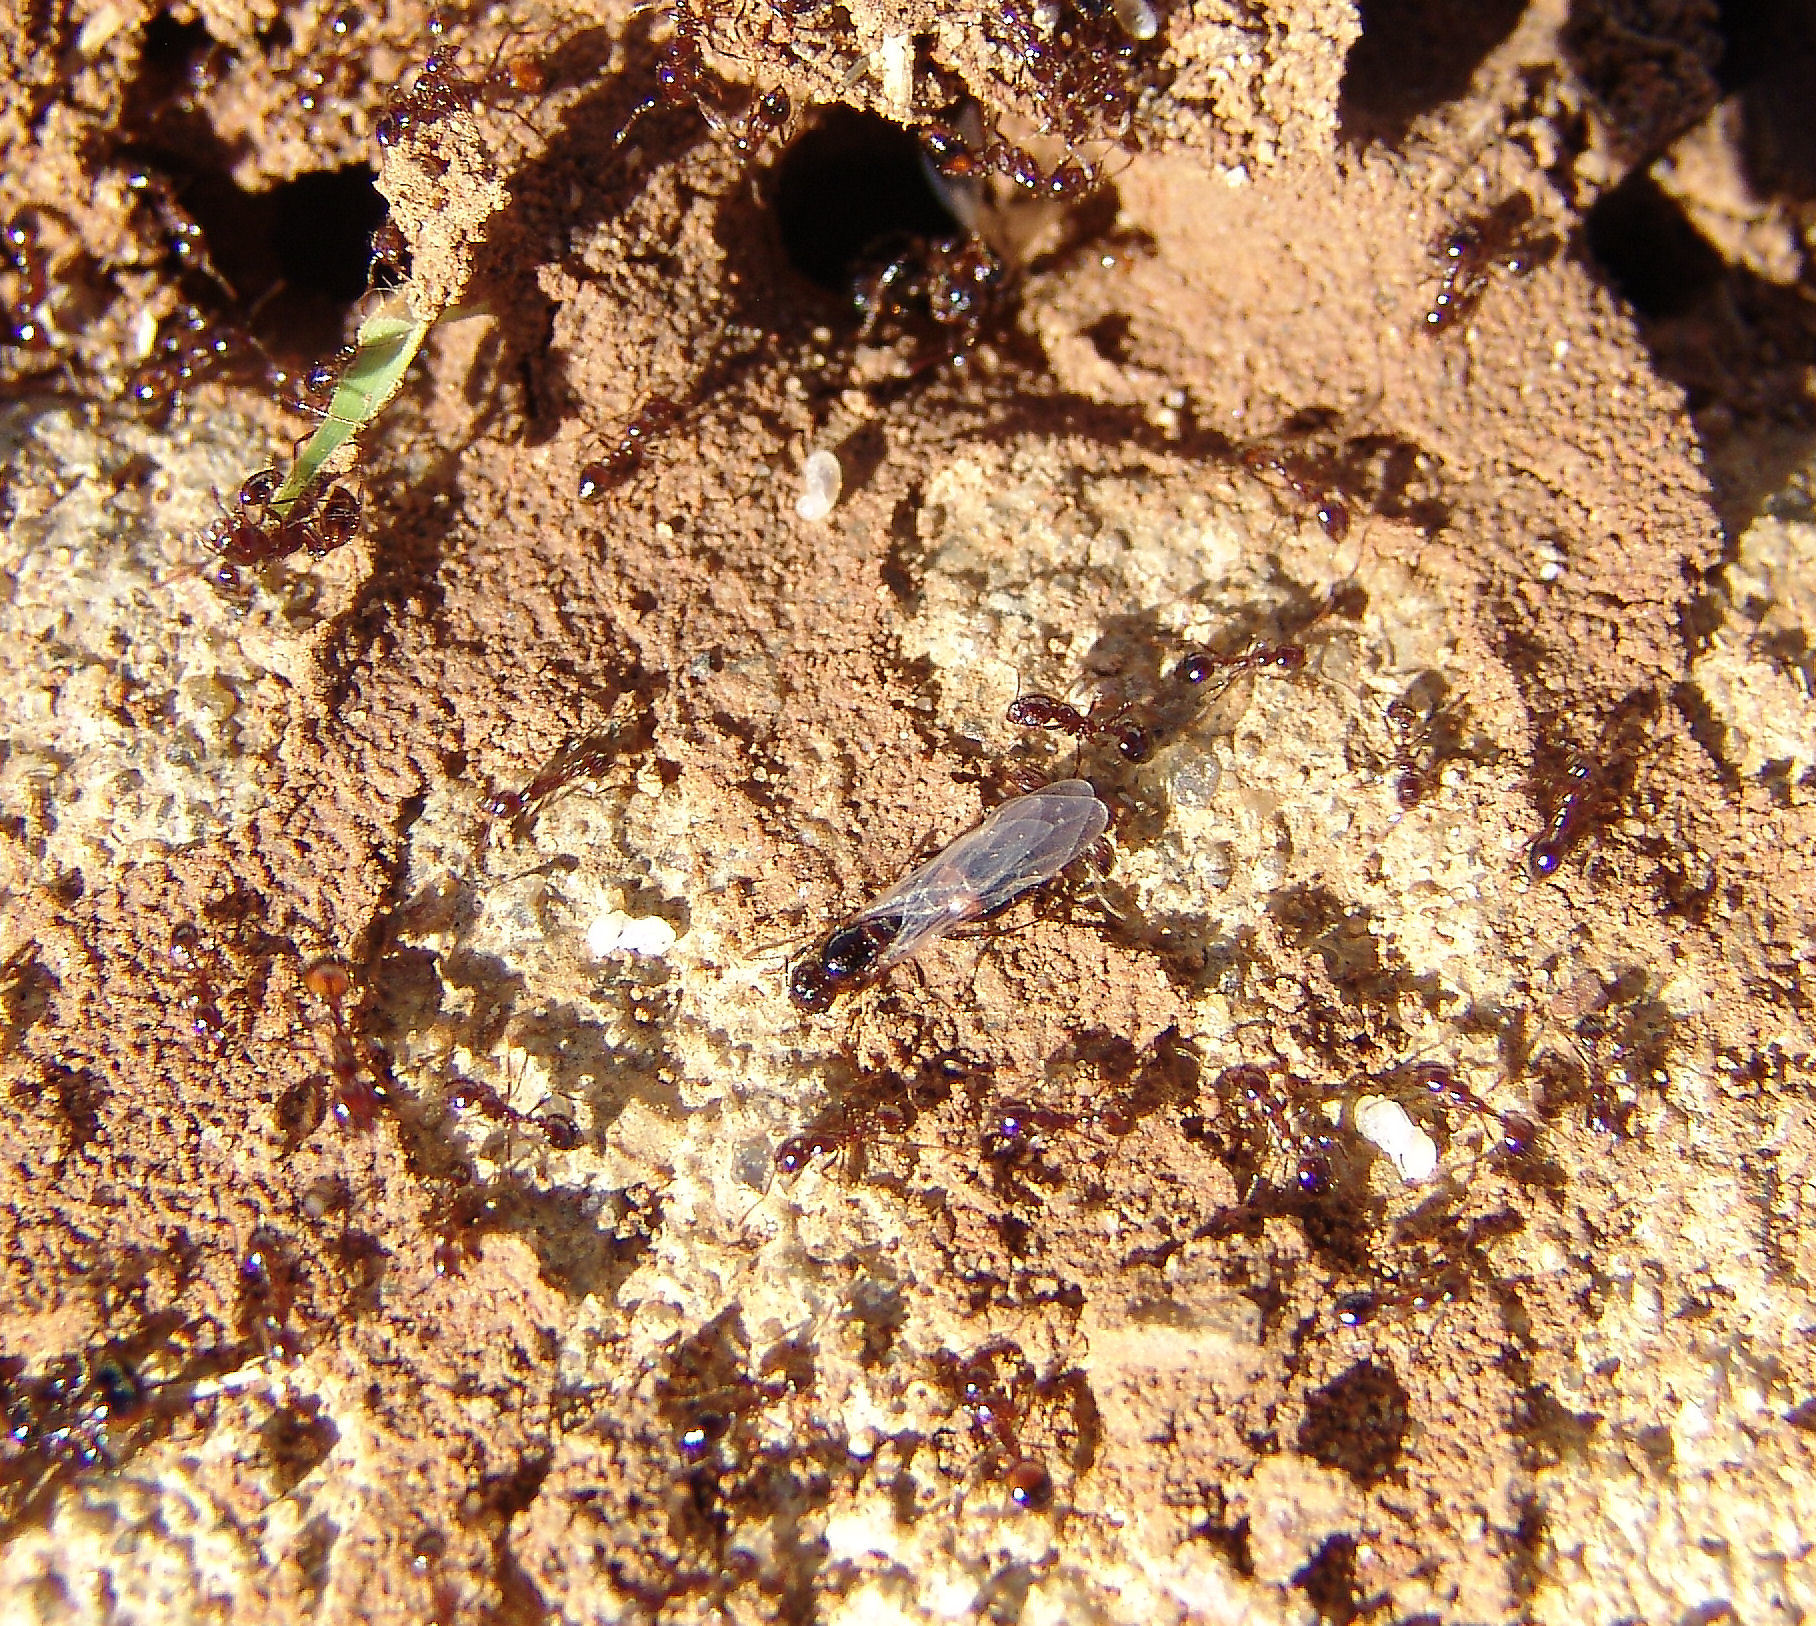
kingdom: Animalia
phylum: Arthropoda
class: Insecta
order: Hymenoptera
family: Formicidae
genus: Solenopsis
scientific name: Solenopsis
